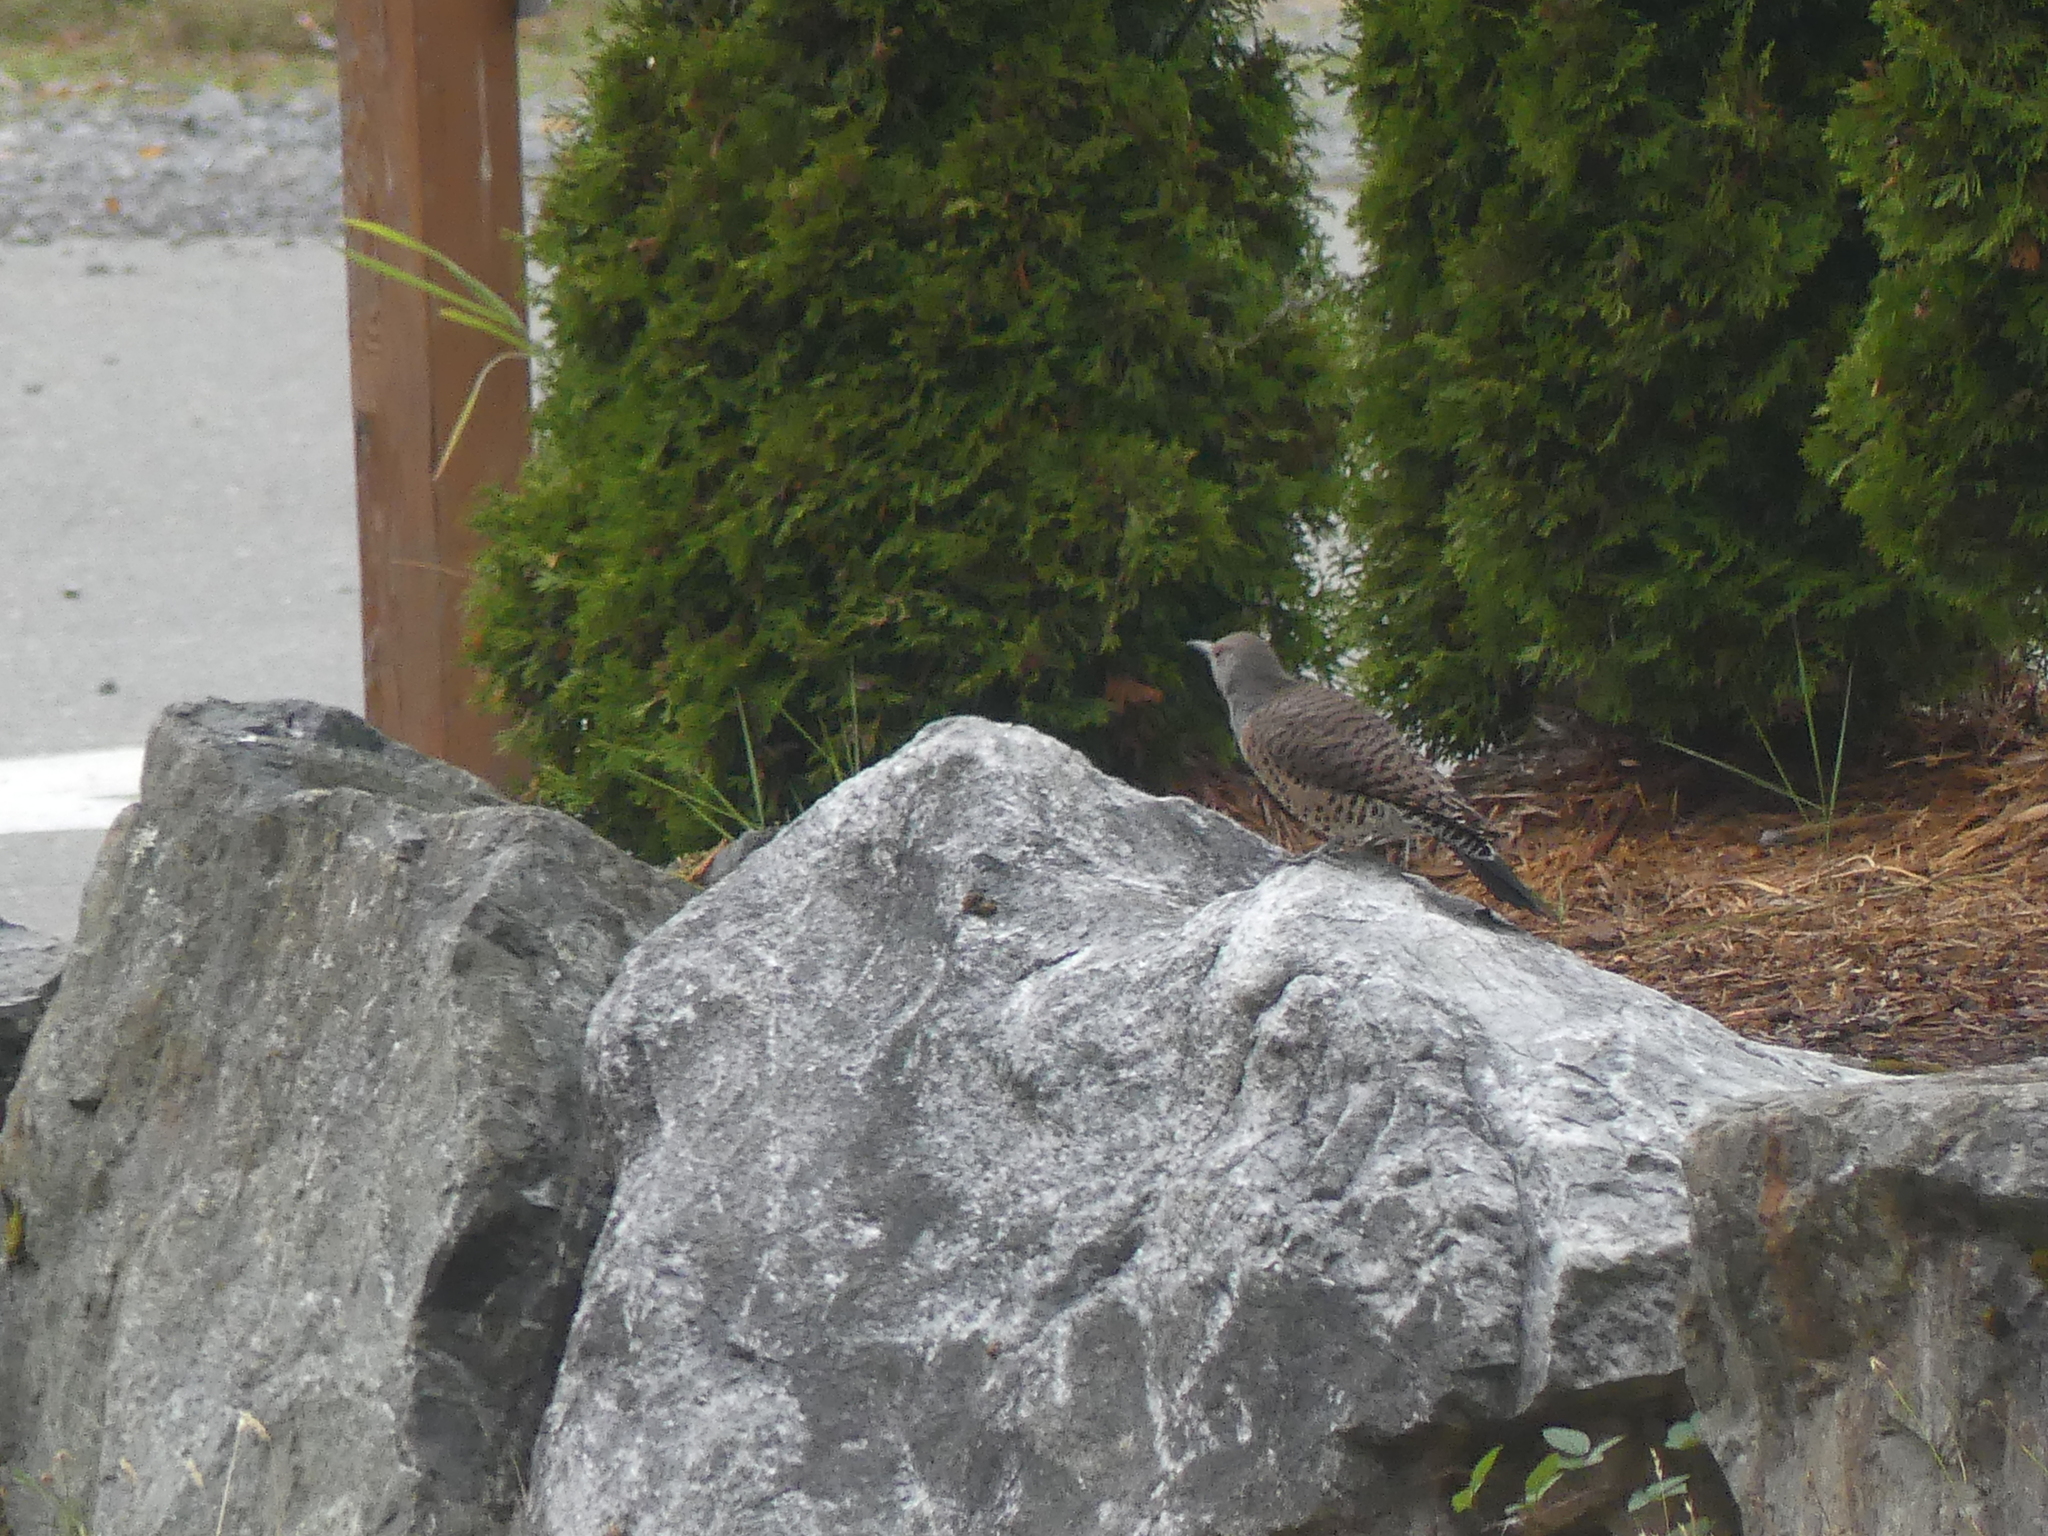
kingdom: Animalia
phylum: Chordata
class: Aves
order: Piciformes
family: Picidae
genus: Colaptes
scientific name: Colaptes auratus
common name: Northern flicker
